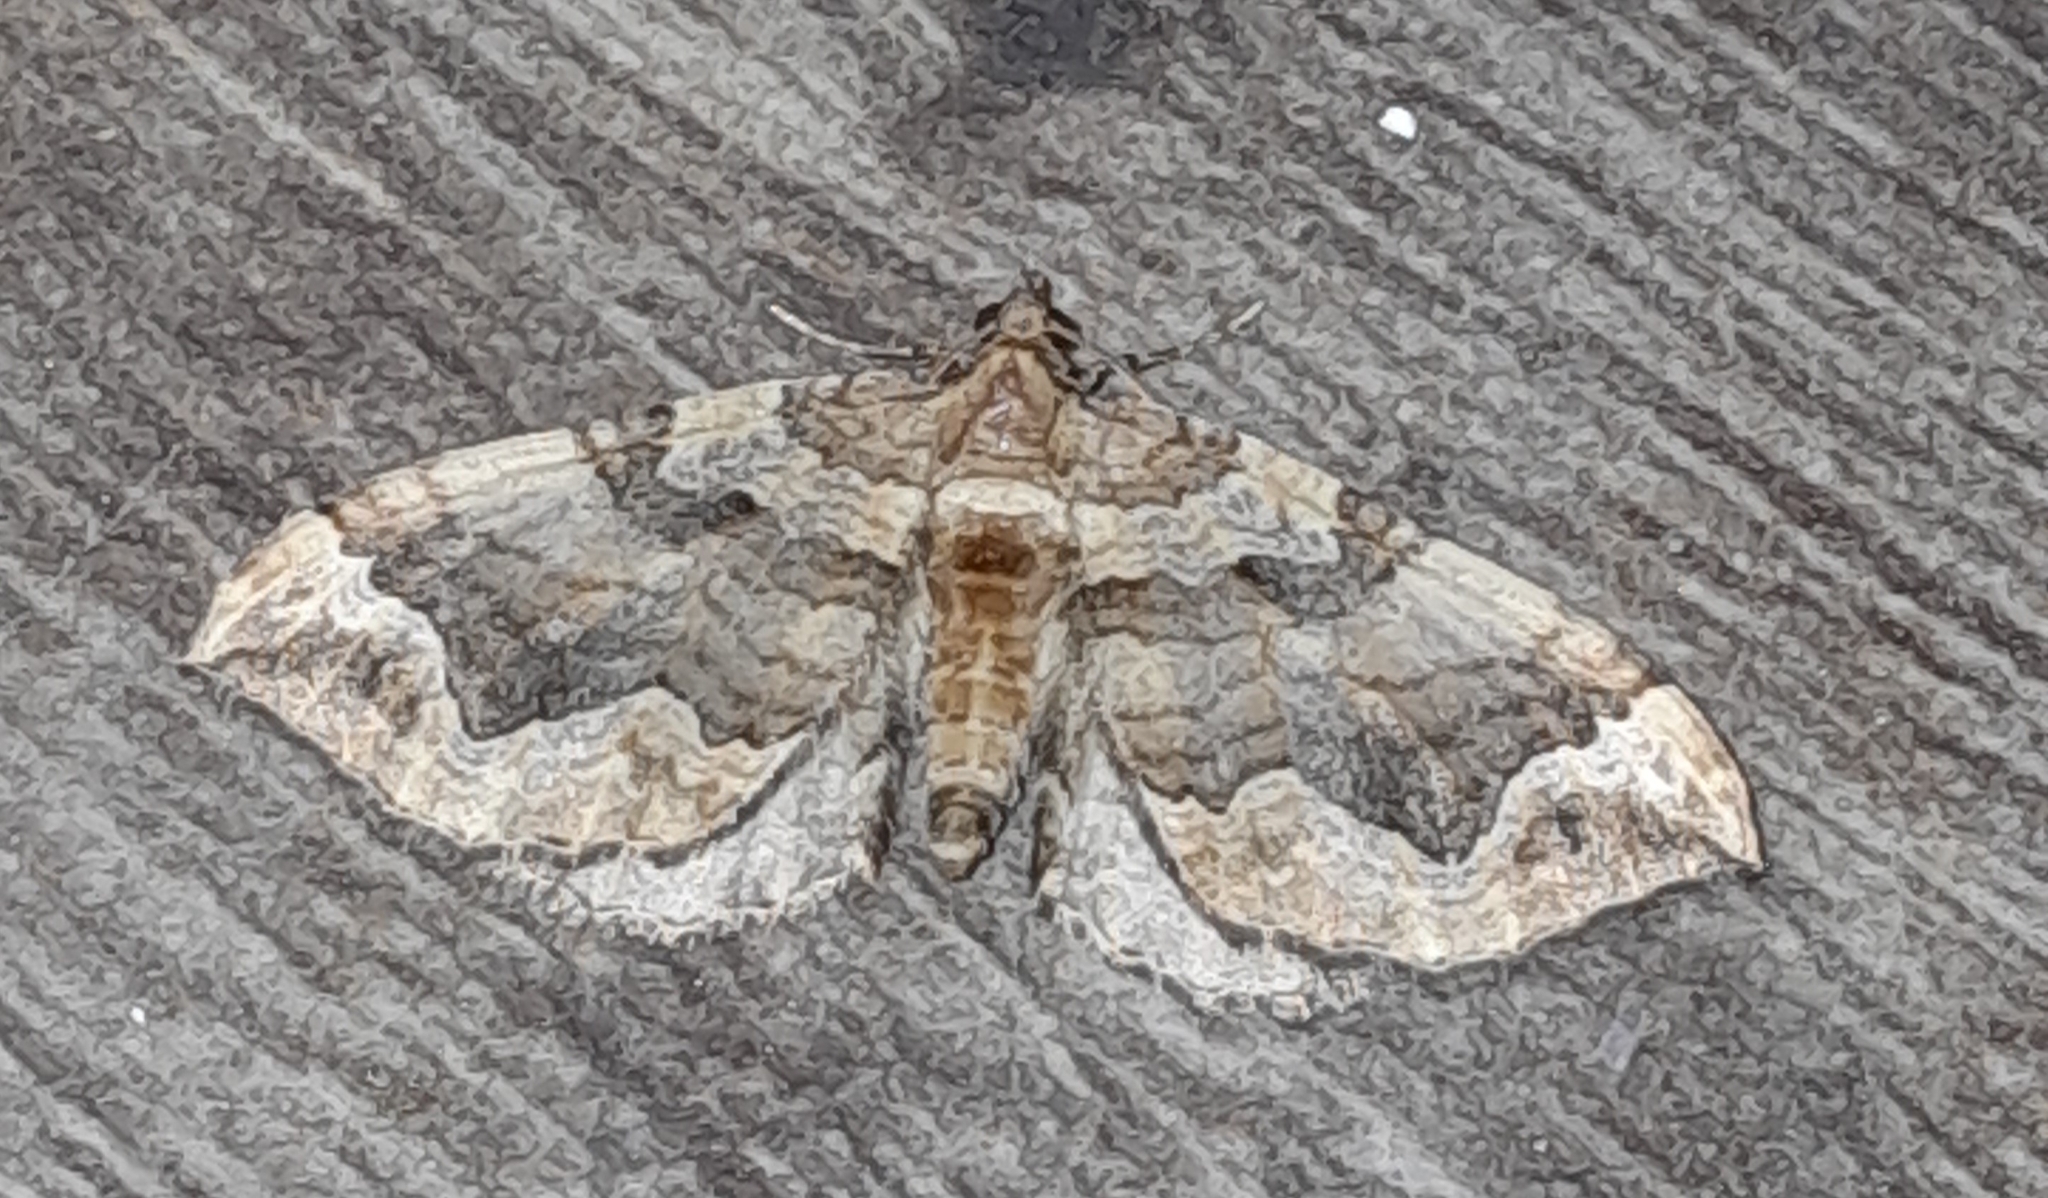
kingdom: Animalia
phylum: Arthropoda
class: Insecta
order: Lepidoptera
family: Geometridae
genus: Pelurga
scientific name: Pelurga comitata
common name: Dark spinach
